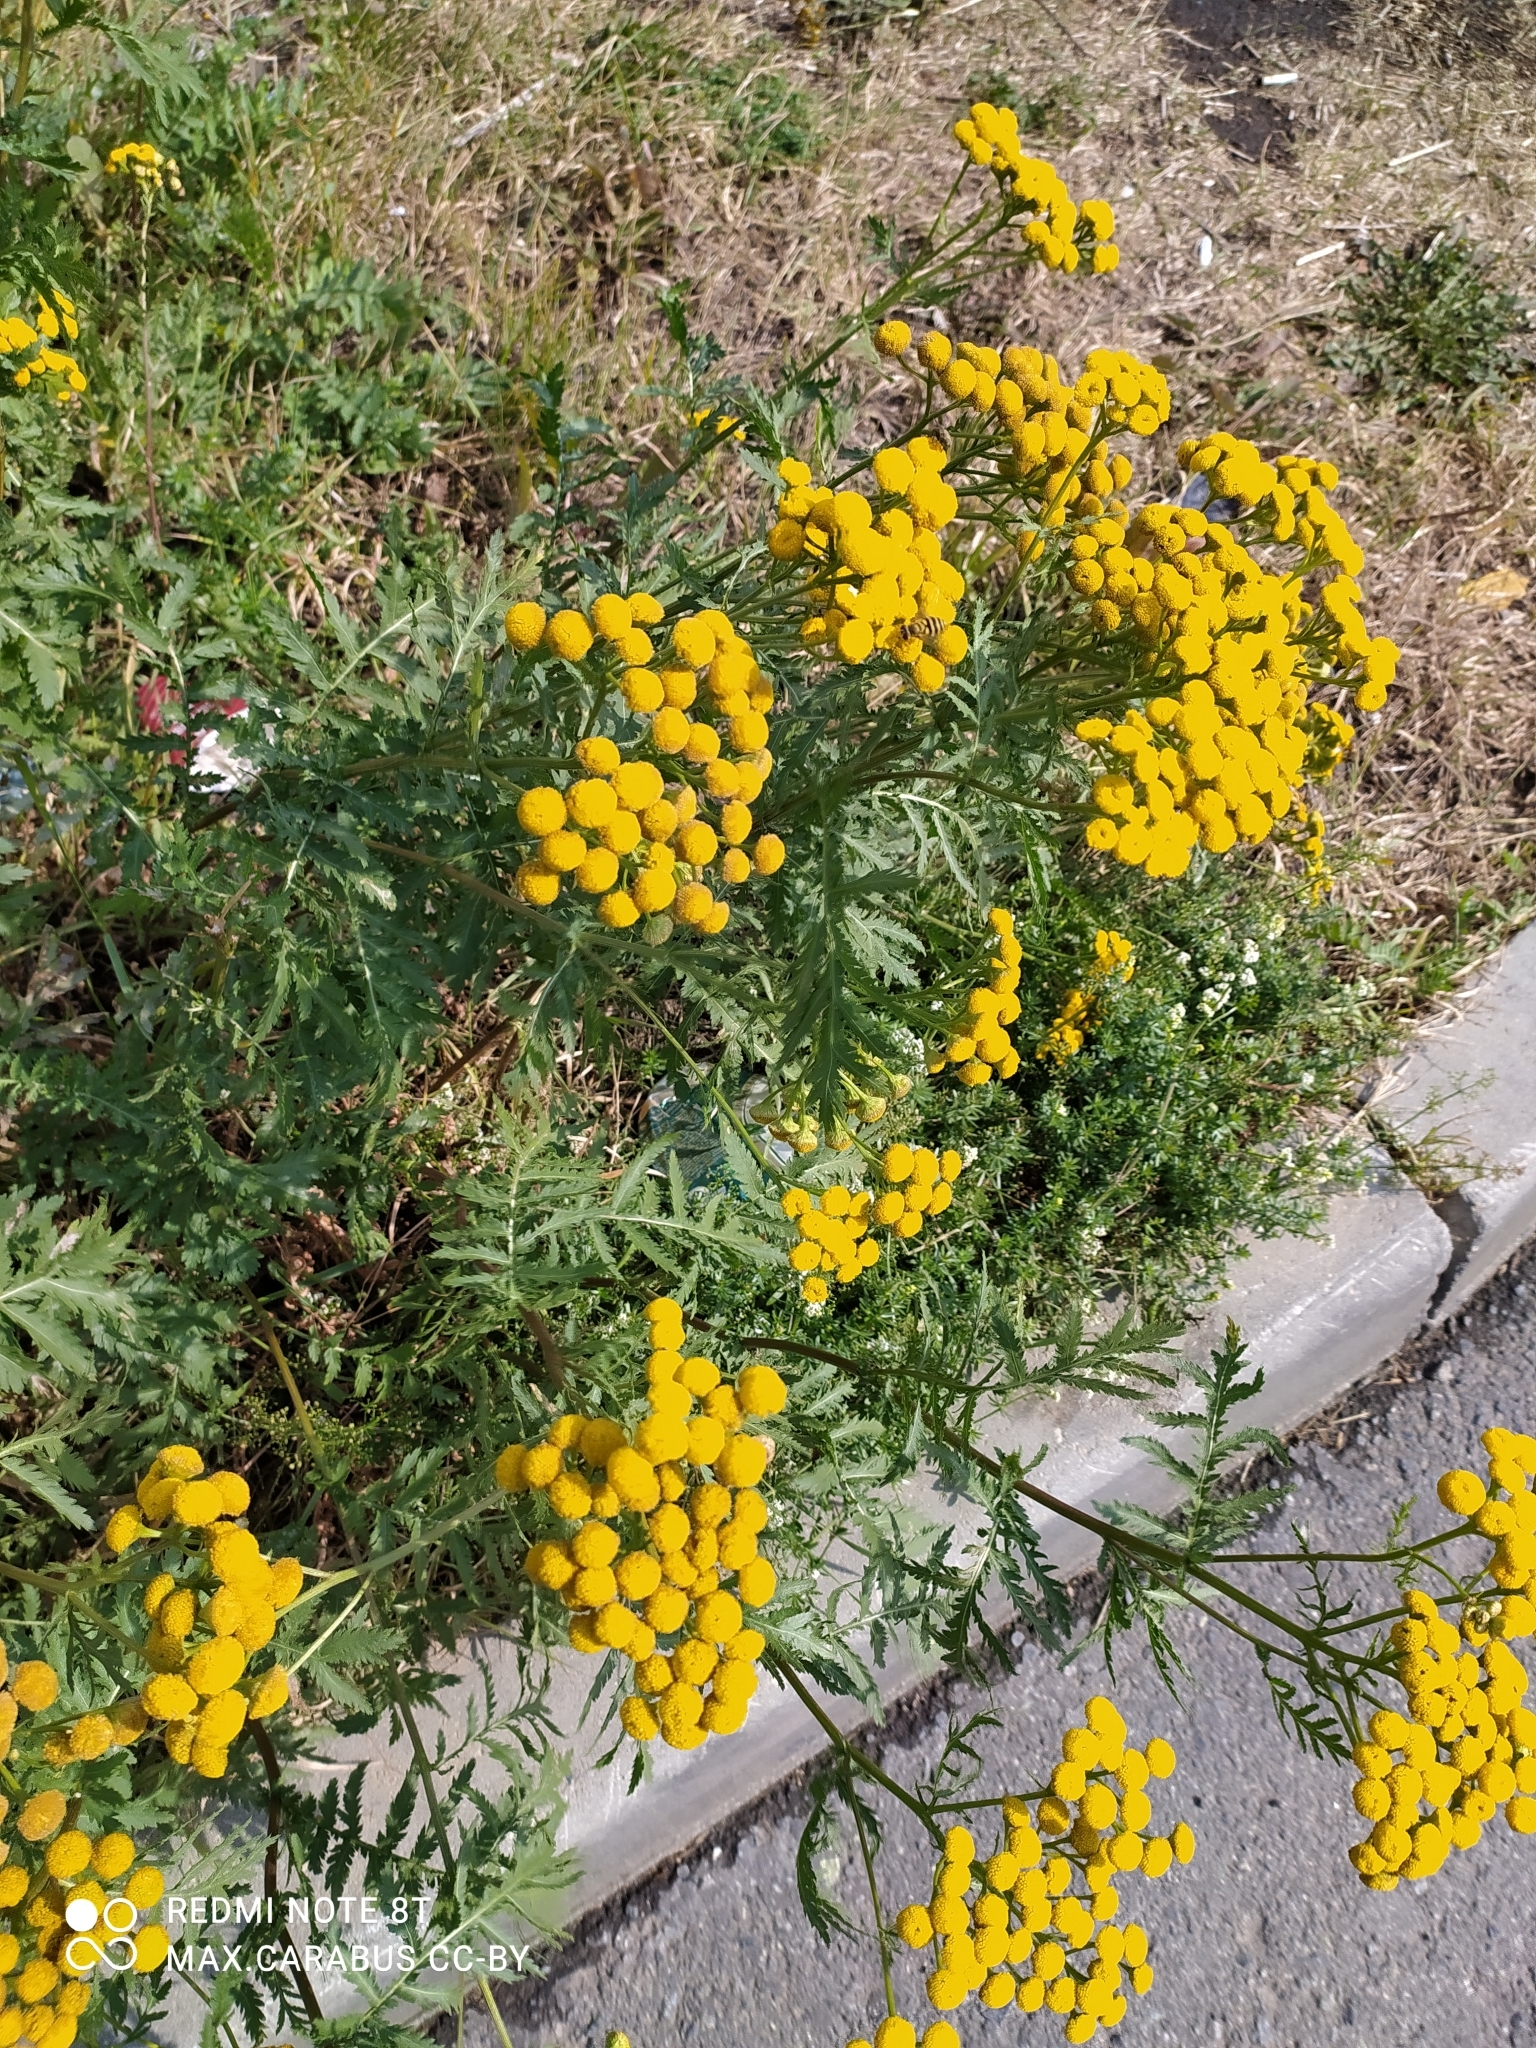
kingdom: Plantae
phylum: Tracheophyta
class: Magnoliopsida
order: Asterales
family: Asteraceae
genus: Tanacetum
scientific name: Tanacetum vulgare
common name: Common tansy
